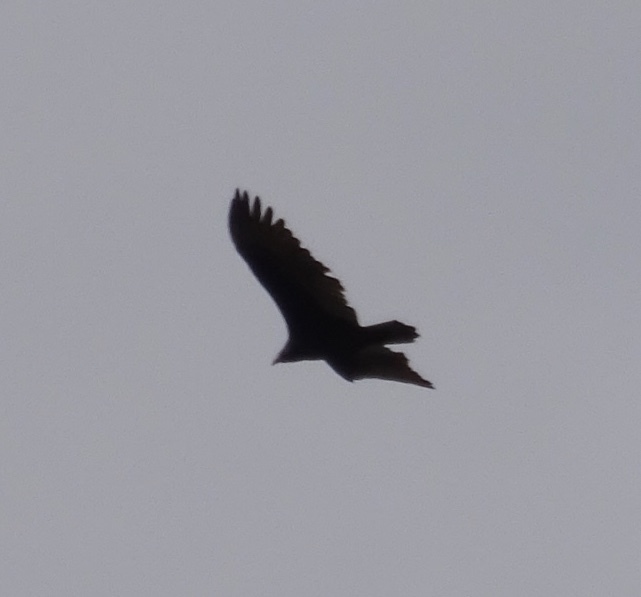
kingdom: Animalia
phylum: Chordata
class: Aves
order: Accipitriformes
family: Cathartidae
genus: Cathartes
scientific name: Cathartes aura
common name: Turkey vulture
